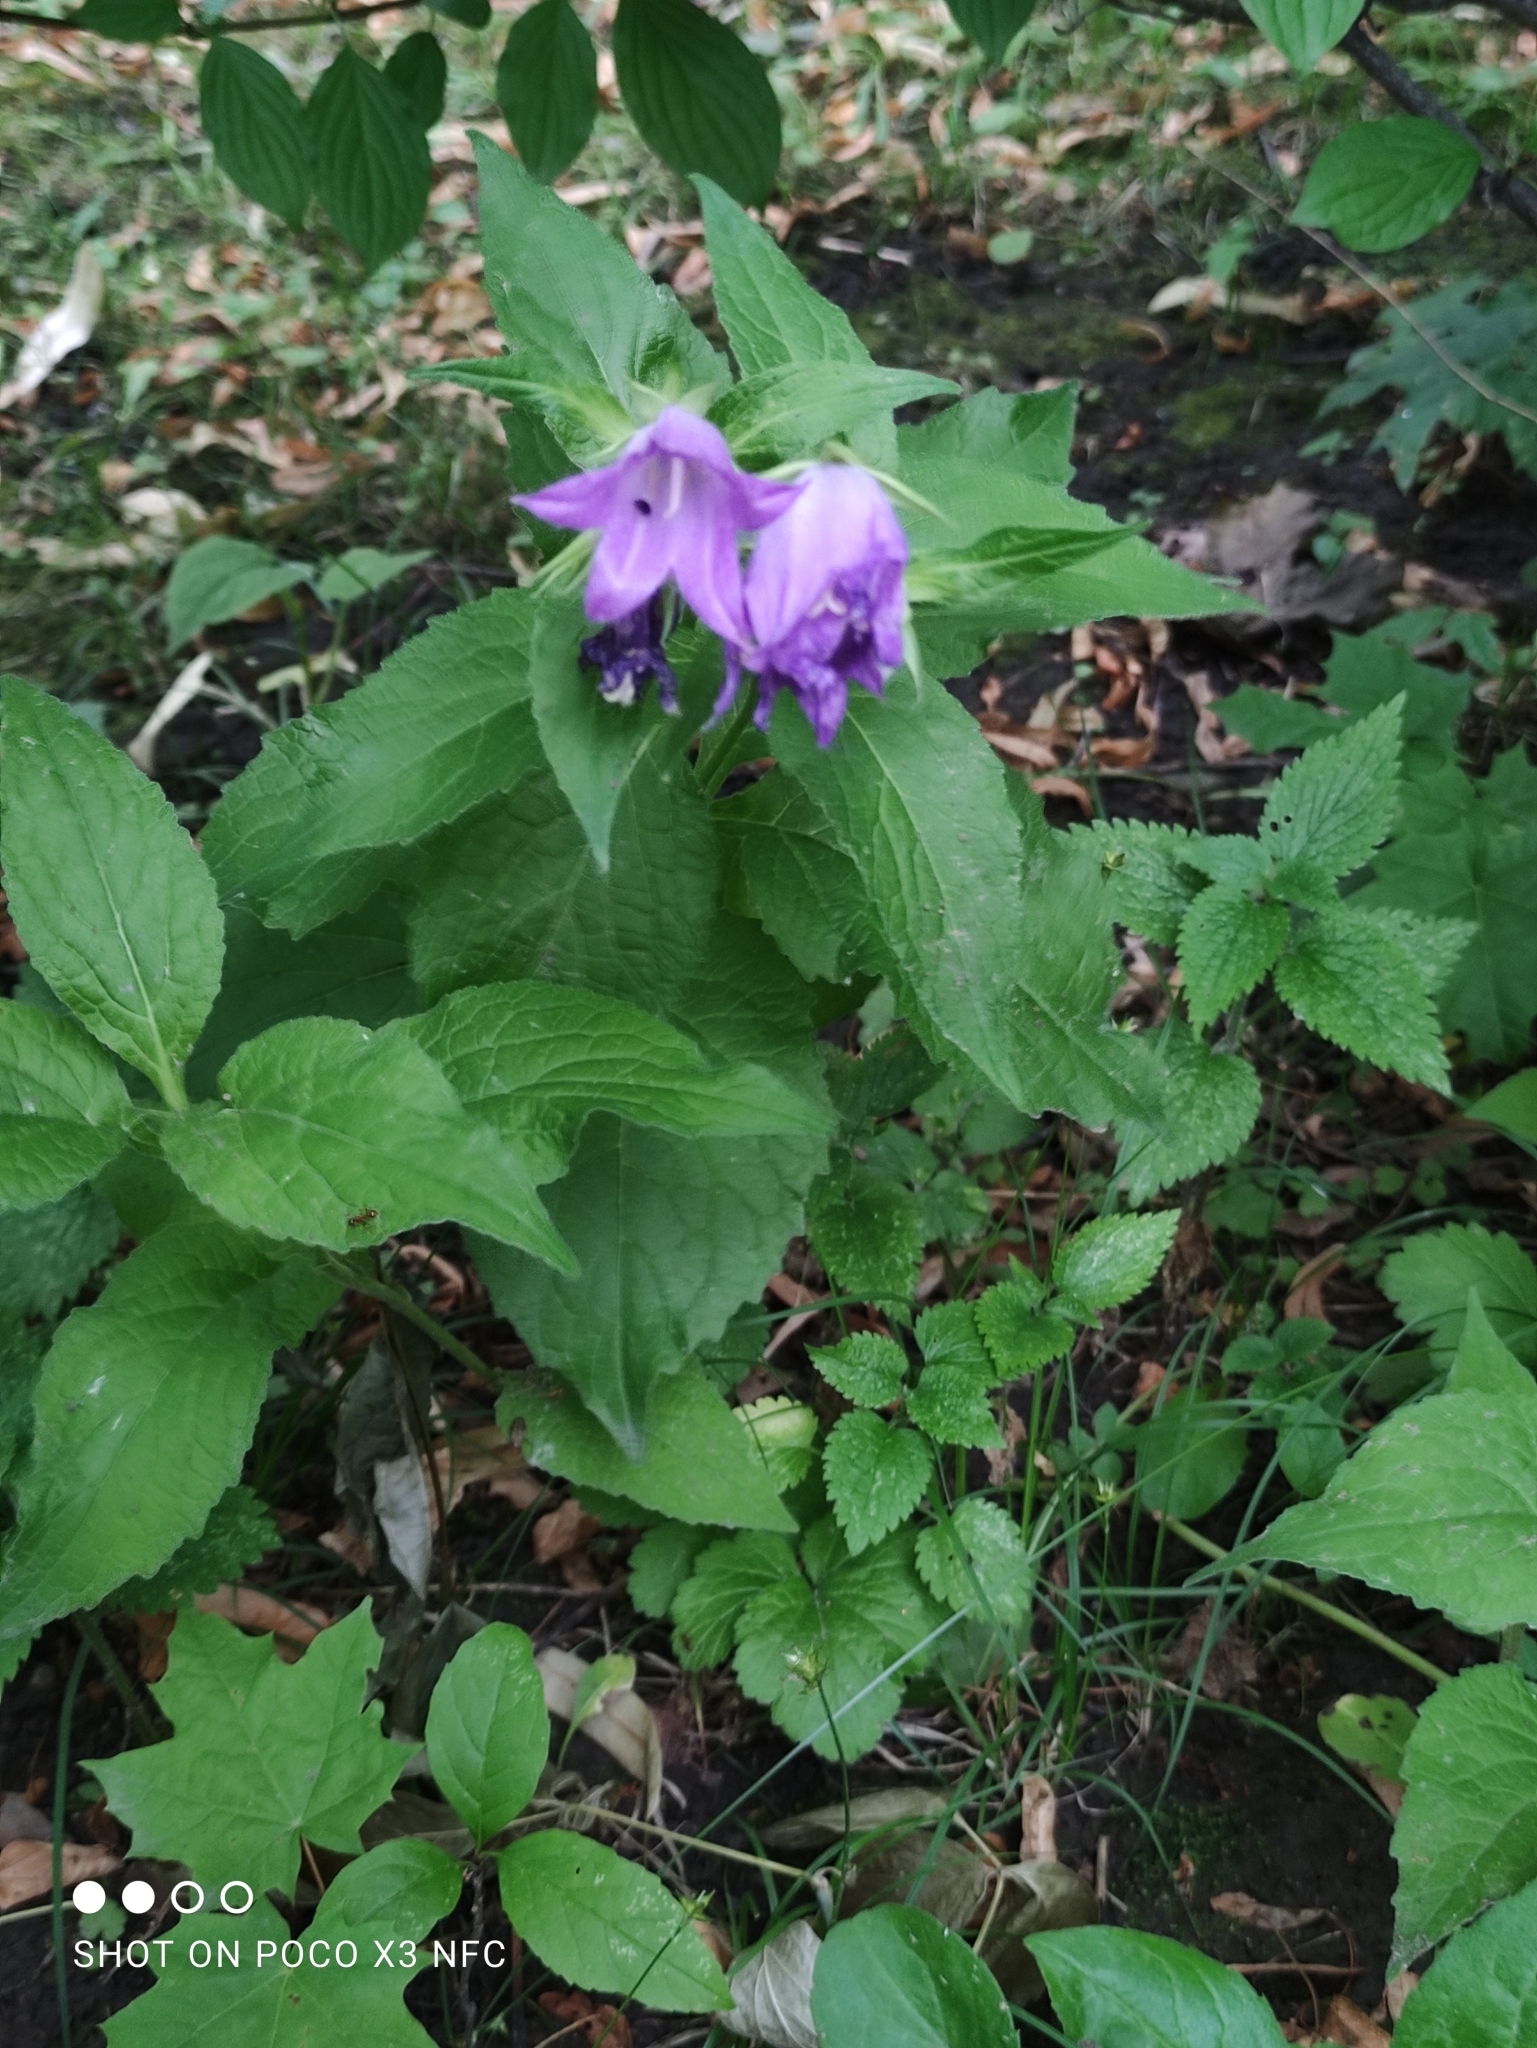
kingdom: Plantae
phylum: Tracheophyta
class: Magnoliopsida
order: Asterales
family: Campanulaceae
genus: Campanula
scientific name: Campanula latifolia
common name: Giant bellflower
